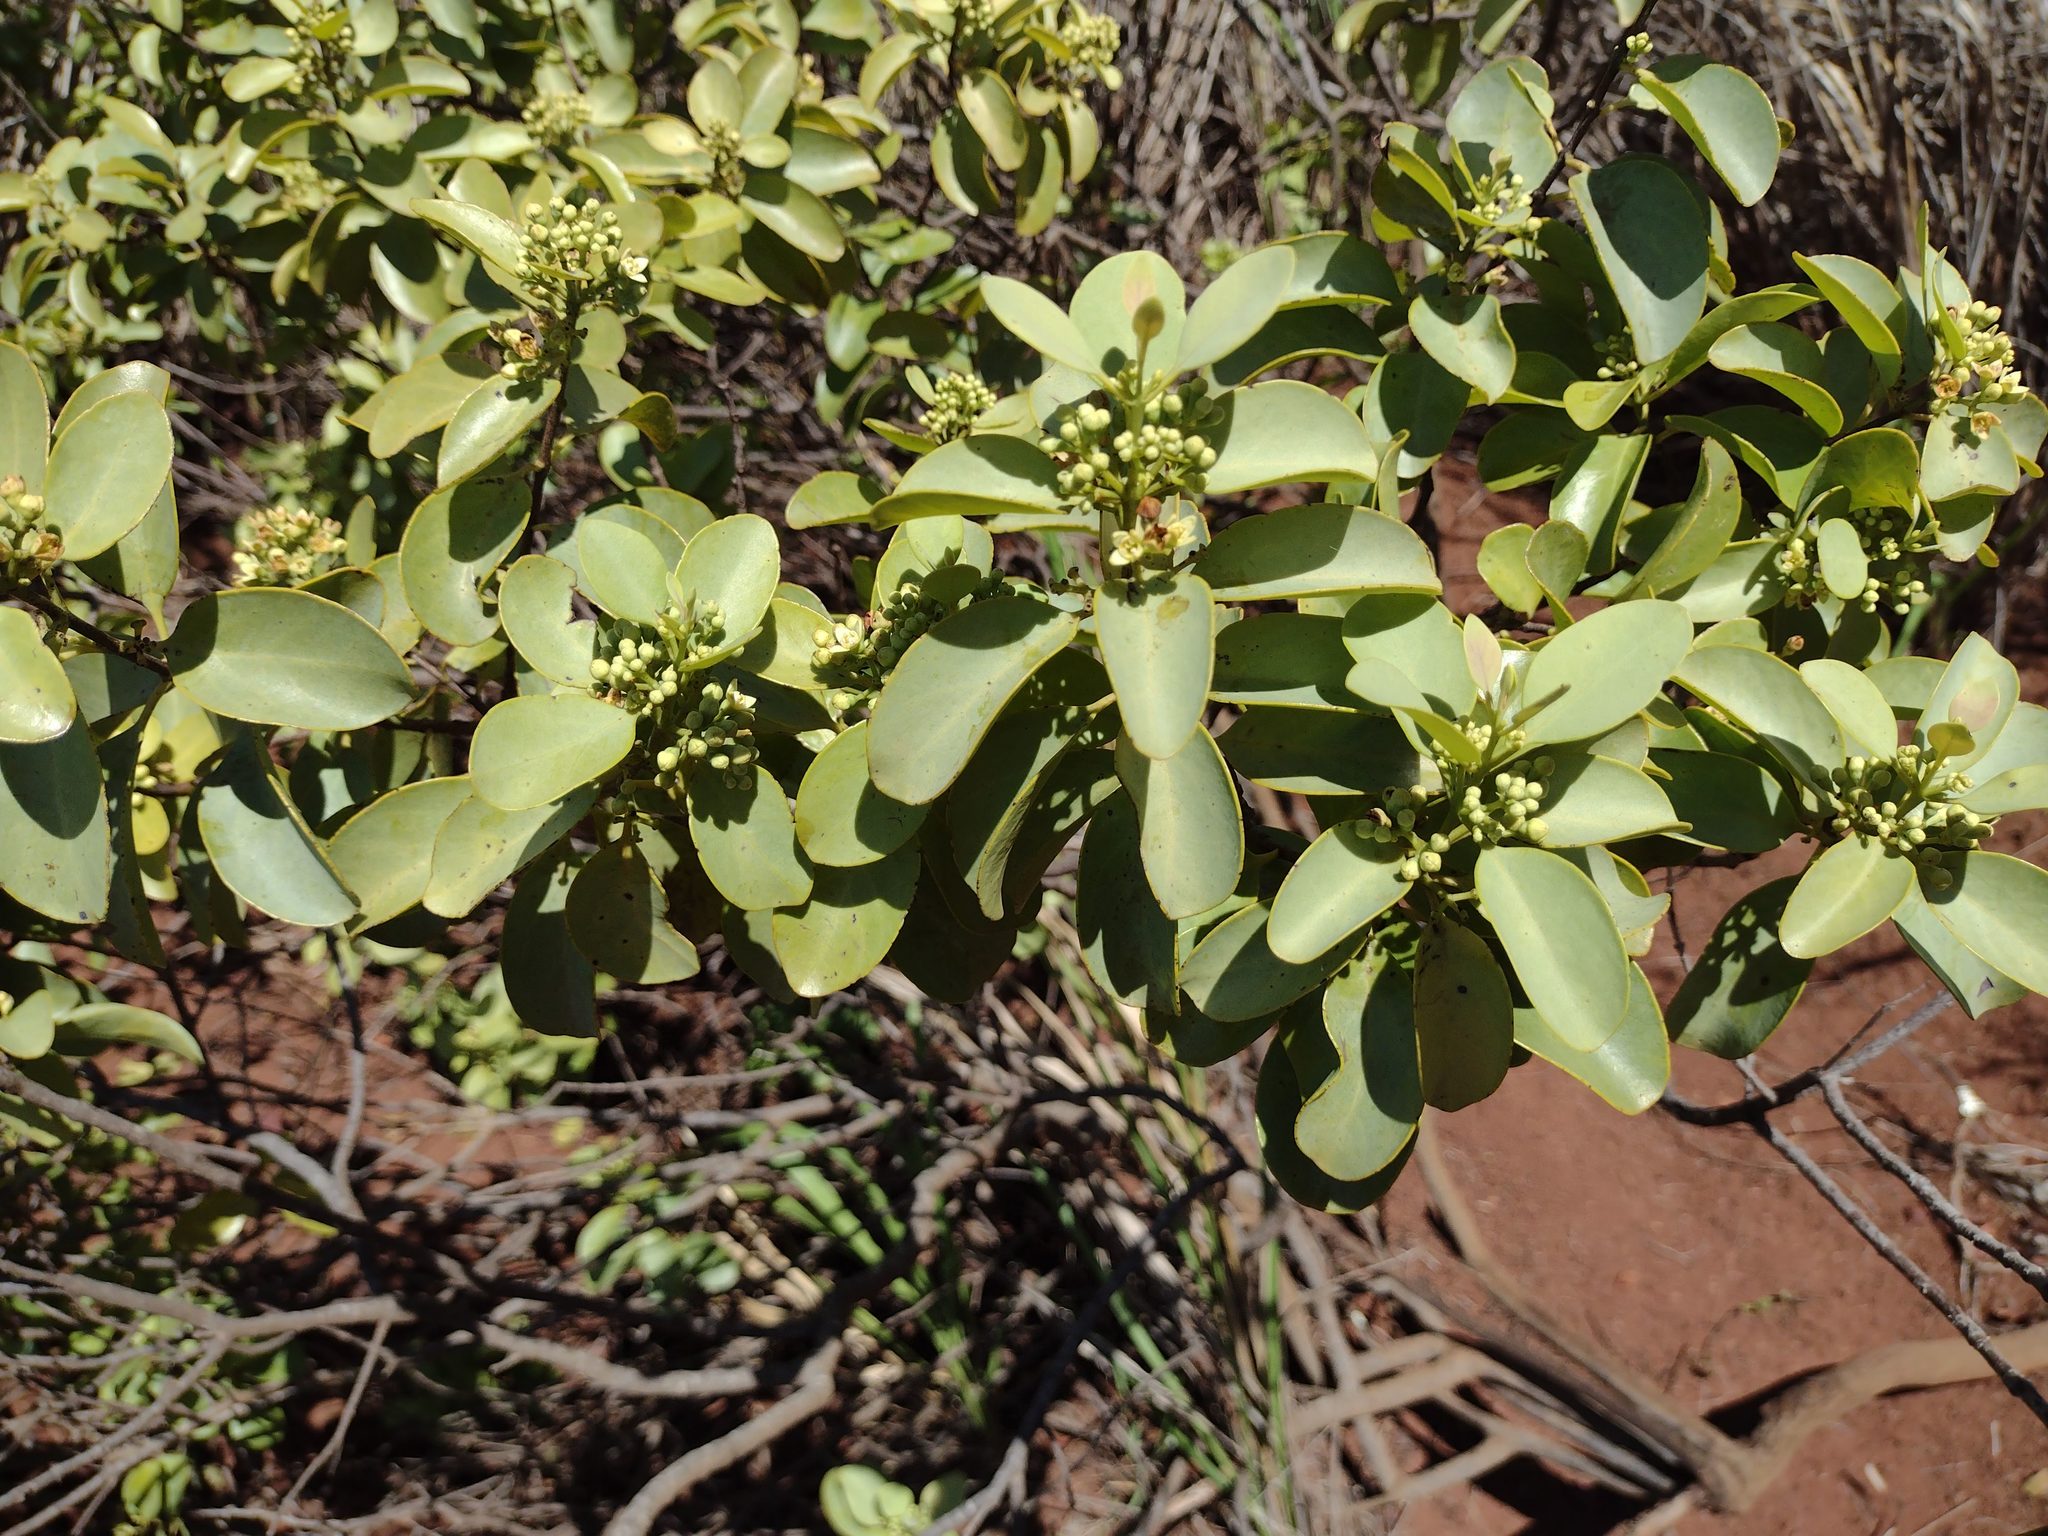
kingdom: Plantae
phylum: Tracheophyta
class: Magnoliopsida
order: Santalales
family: Santalaceae
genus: Santalum
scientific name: Santalum ellipticum
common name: Coast sandalwood
